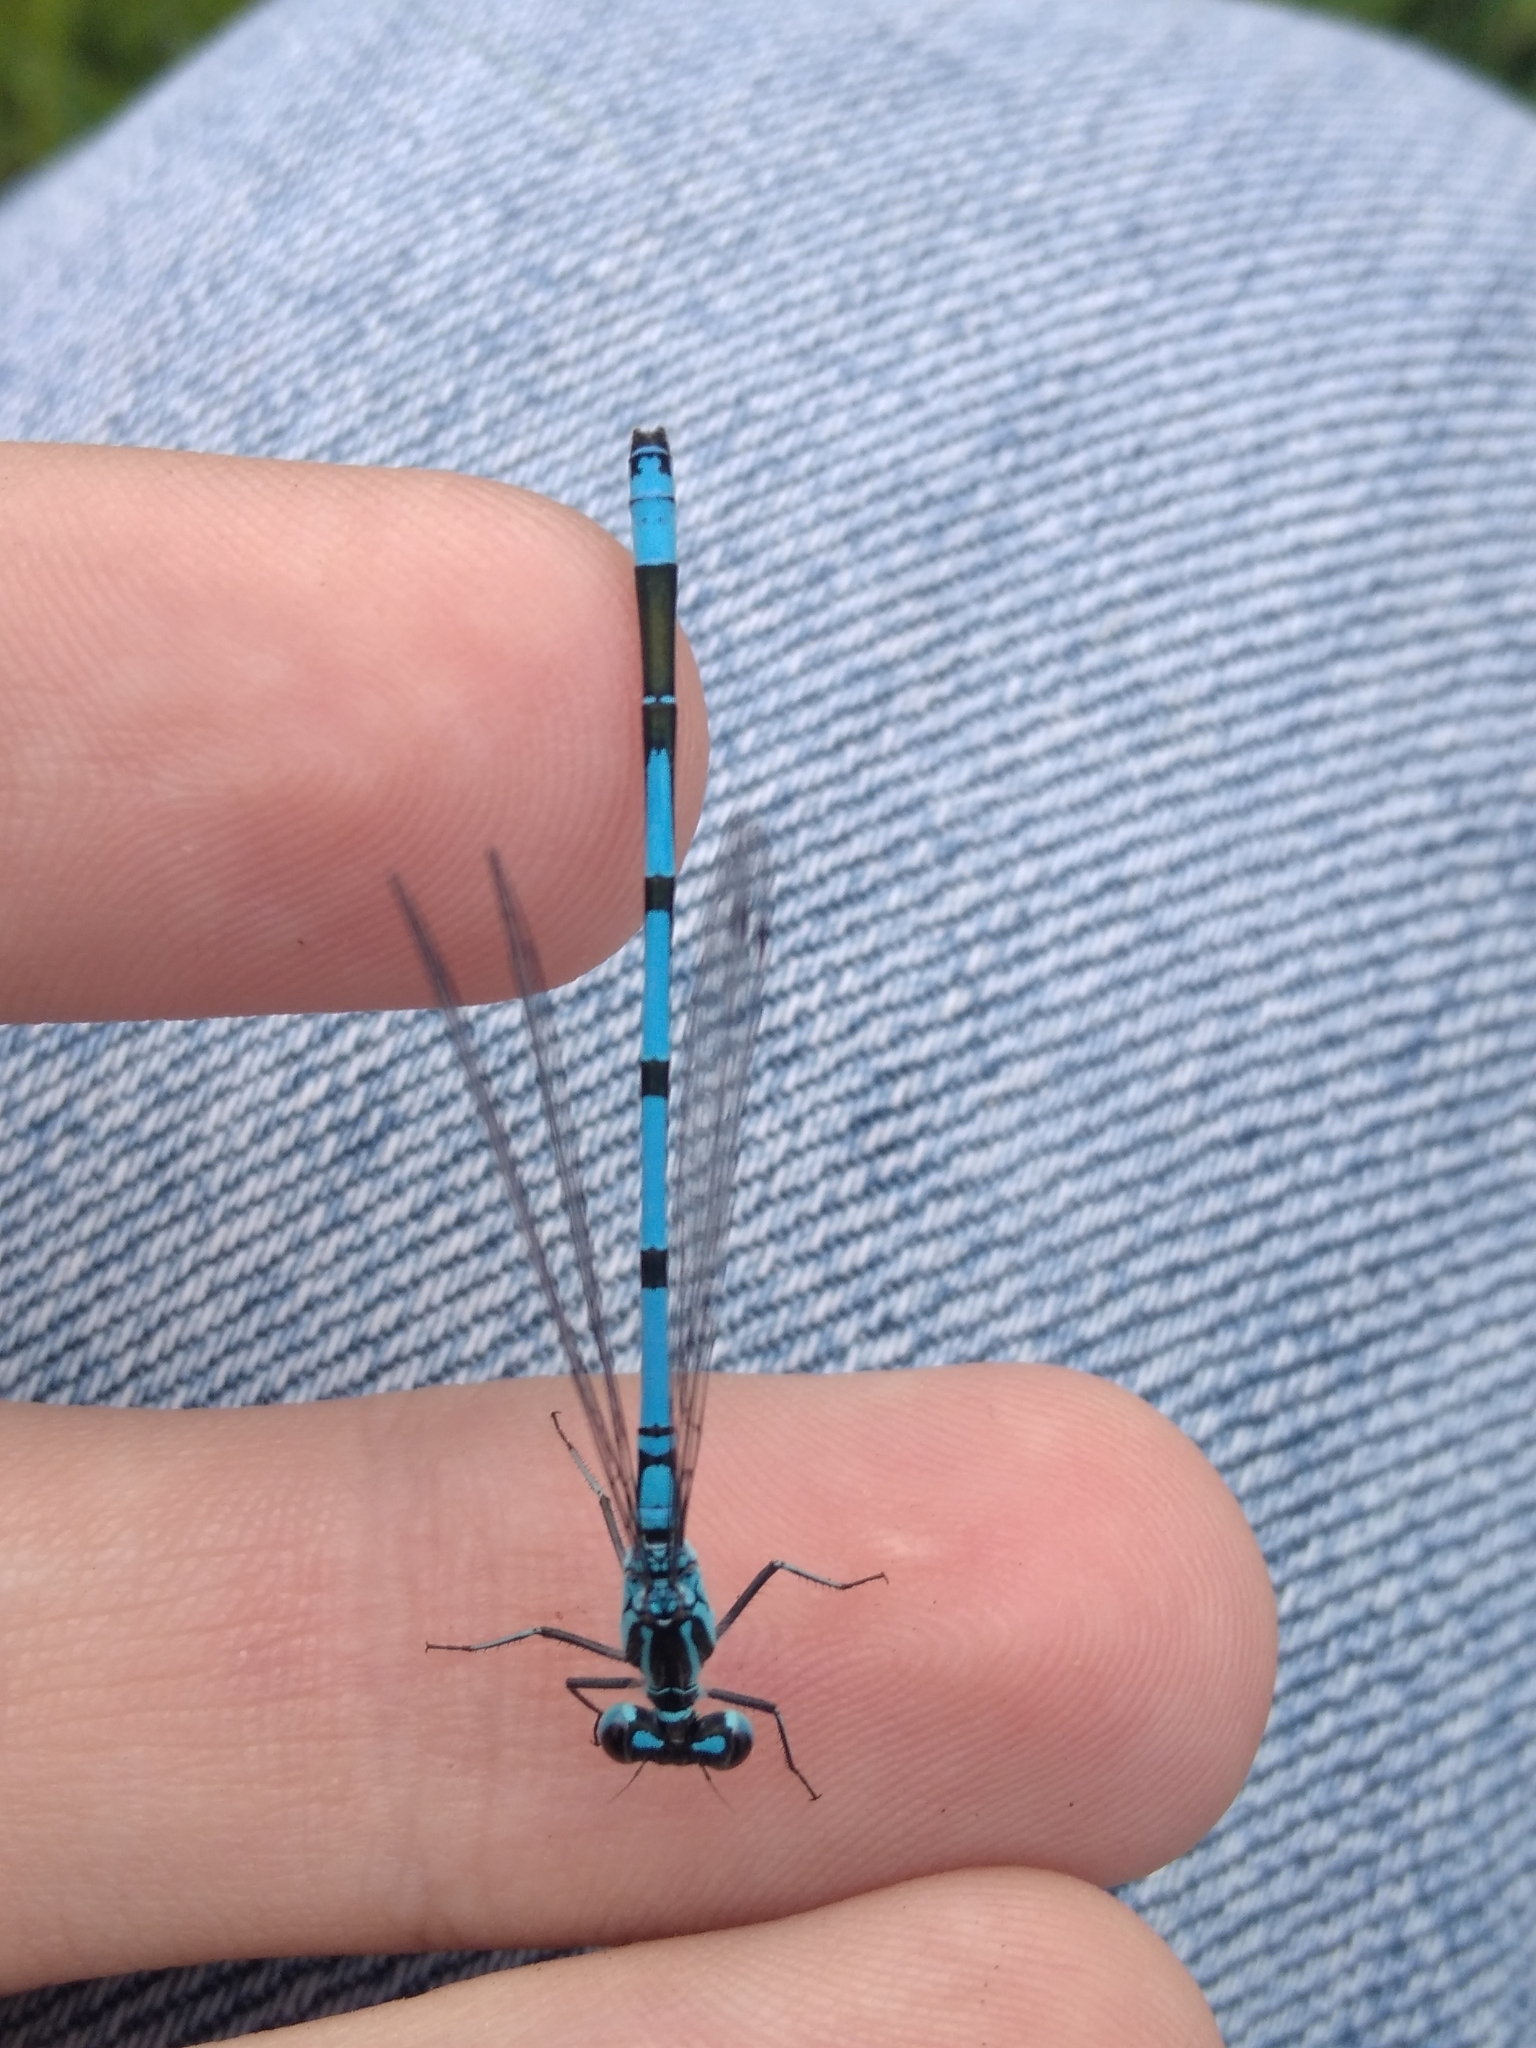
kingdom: Animalia
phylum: Arthropoda
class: Insecta
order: Odonata
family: Coenagrionidae
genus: Coenagrion
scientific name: Coenagrion puella
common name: Azure damselfly
